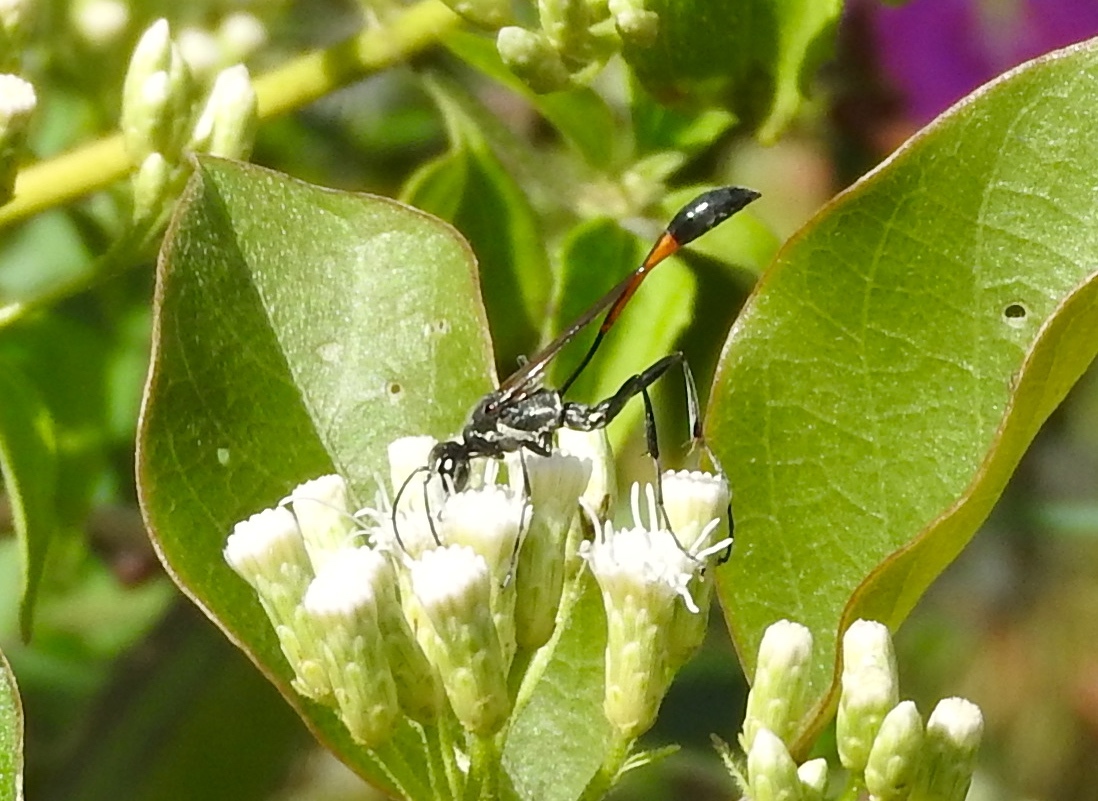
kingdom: Animalia
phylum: Arthropoda
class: Insecta
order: Hymenoptera
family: Sphecidae
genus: Ammophila
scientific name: Ammophila
